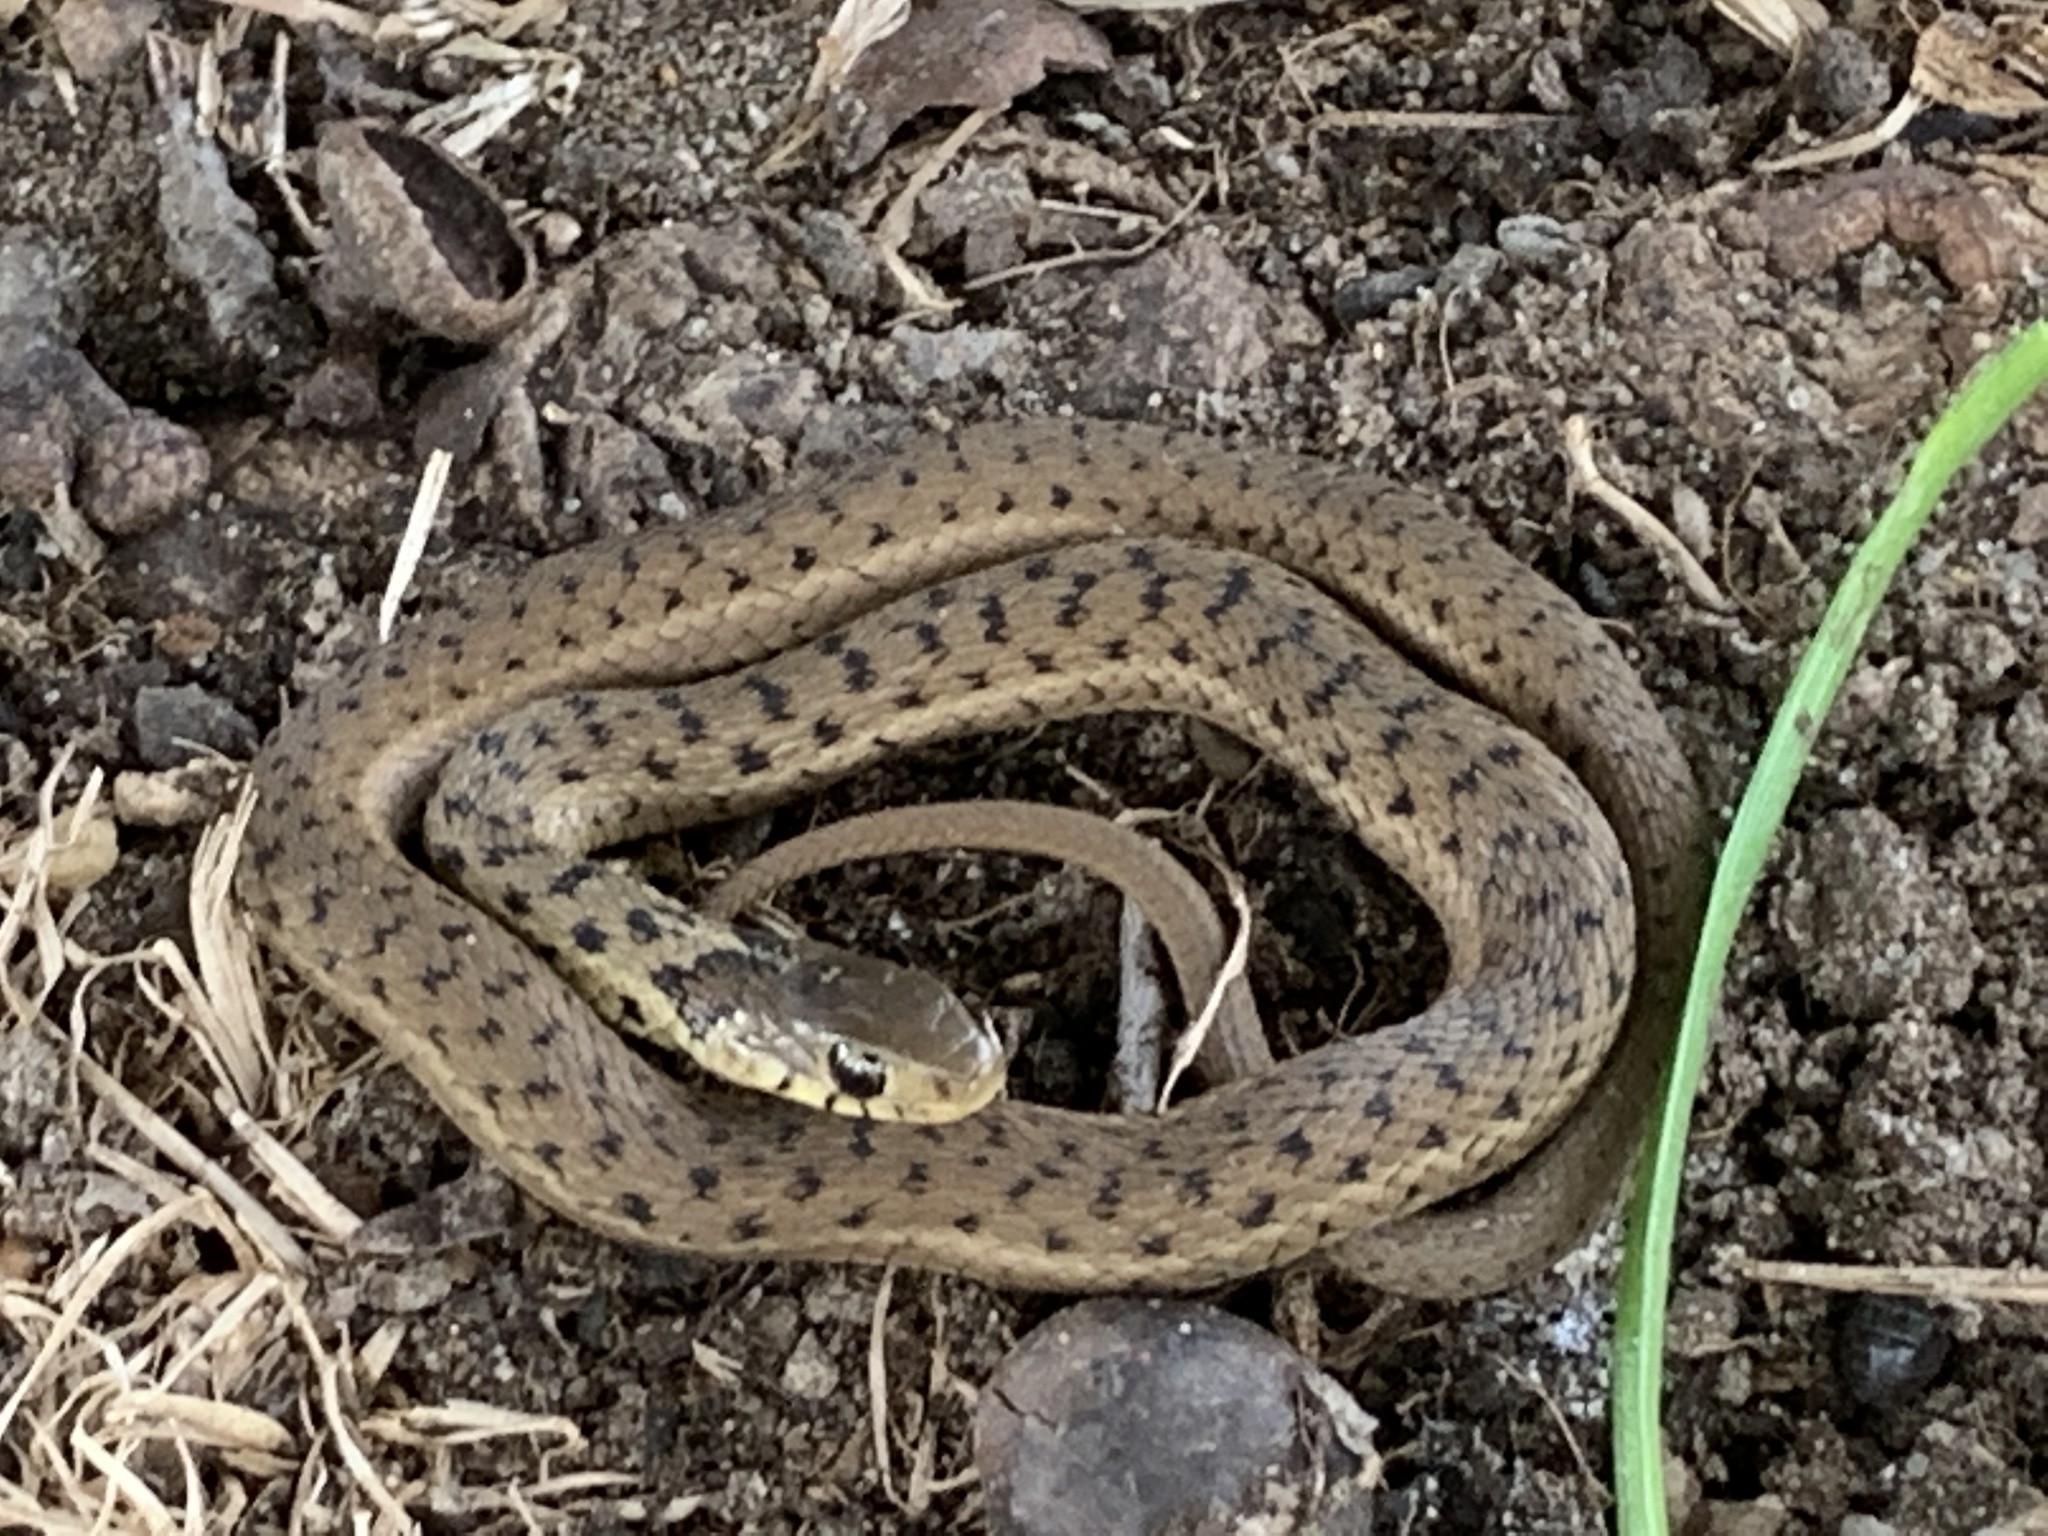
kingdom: Animalia
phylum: Chordata
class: Squamata
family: Colubridae
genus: Thamnophis
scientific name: Thamnophis sirtalis
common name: Common garter snake
